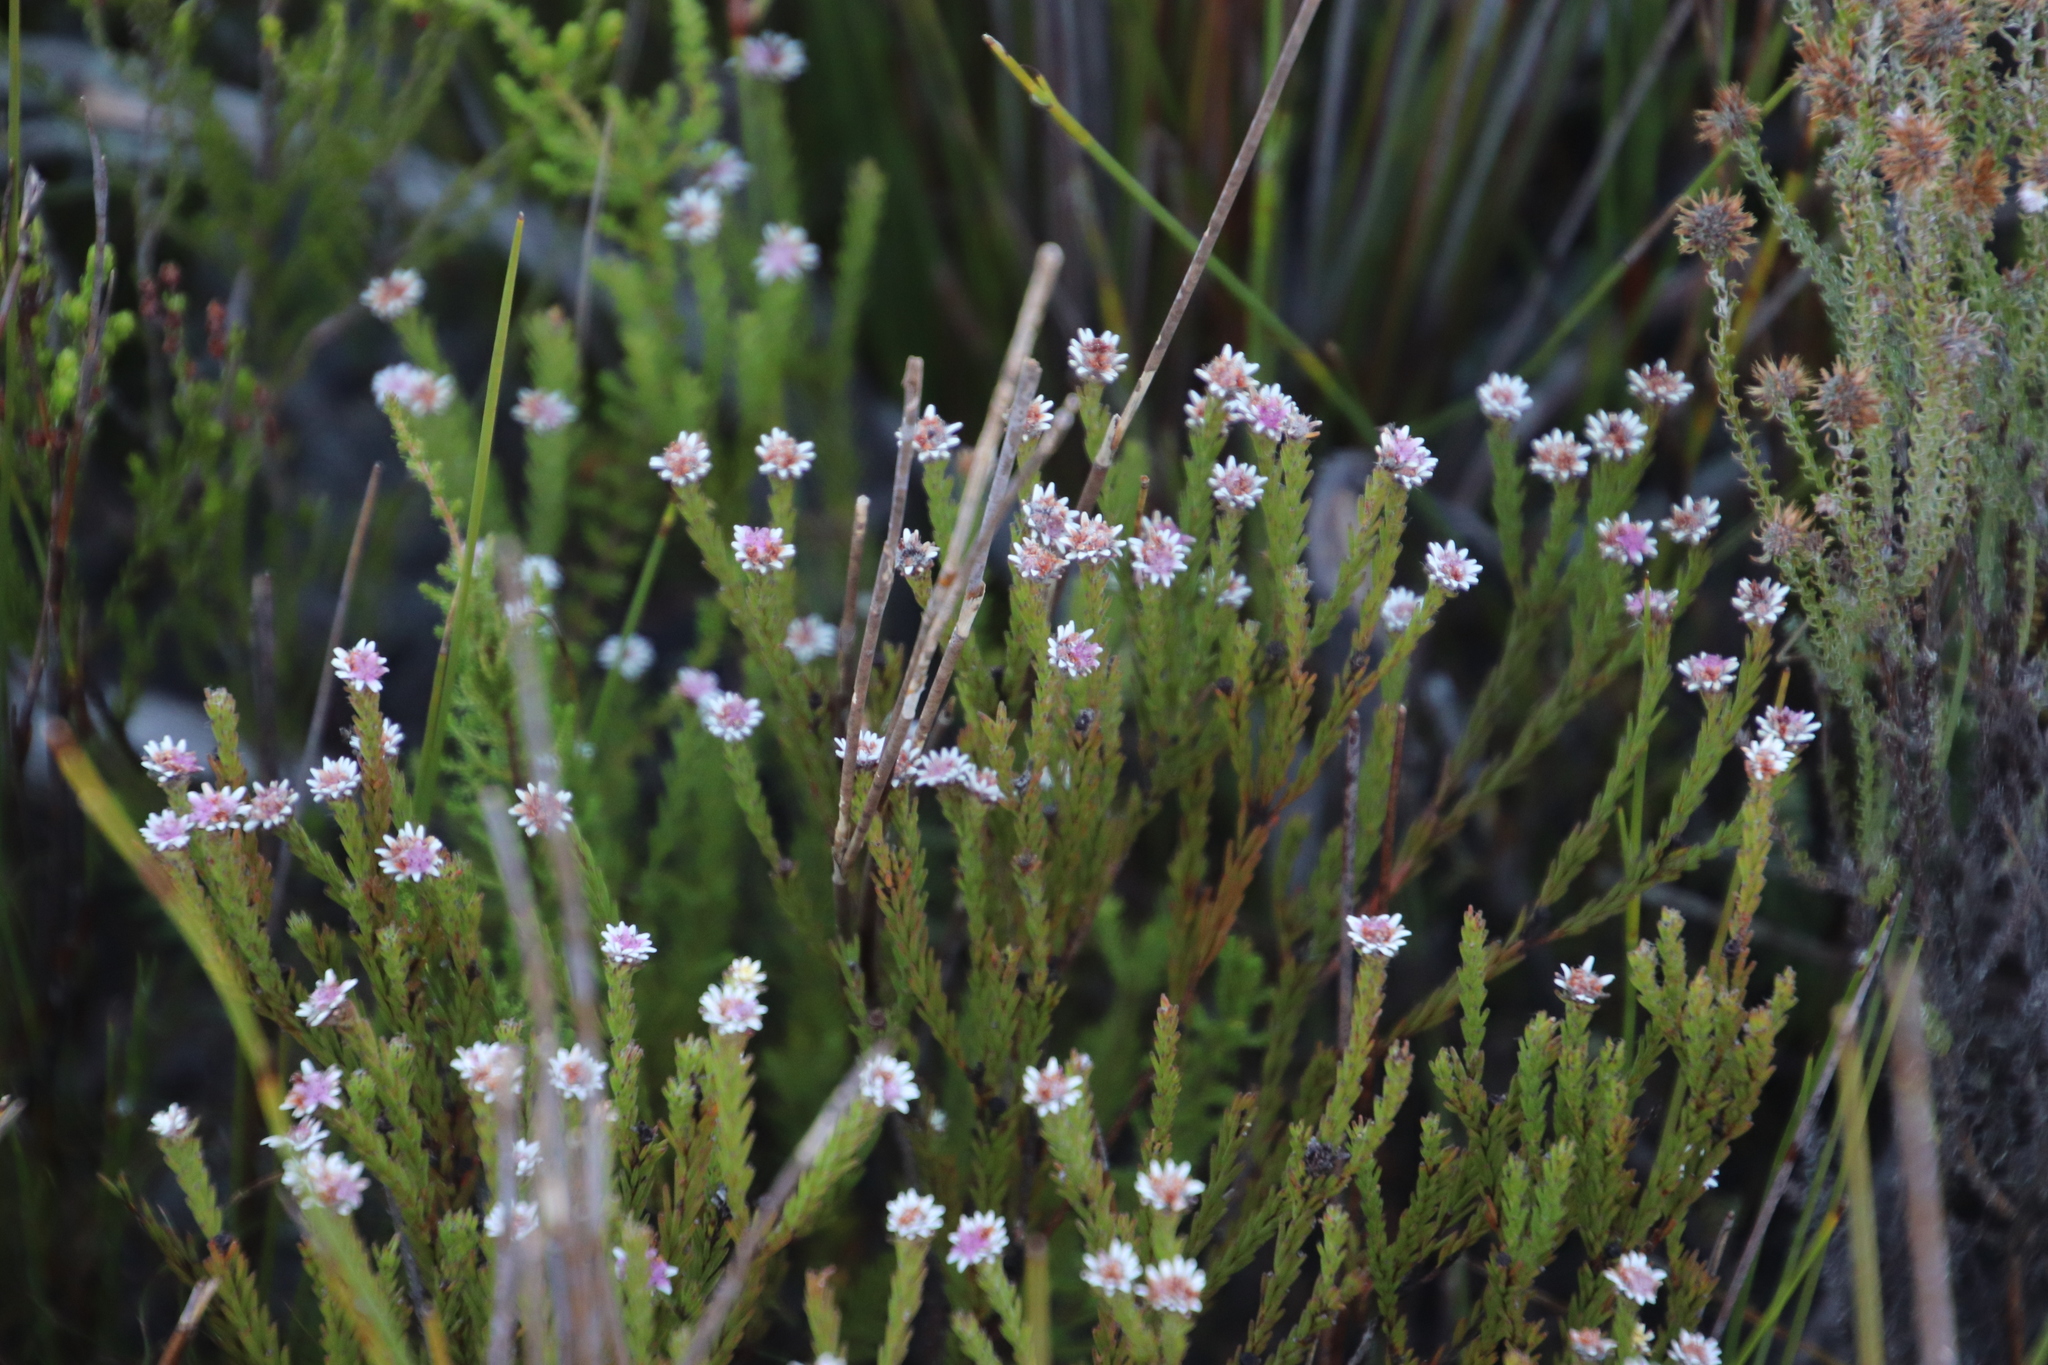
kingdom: Plantae
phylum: Tracheophyta
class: Magnoliopsida
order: Bruniales
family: Bruniaceae
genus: Staavia
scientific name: Staavia radiata
